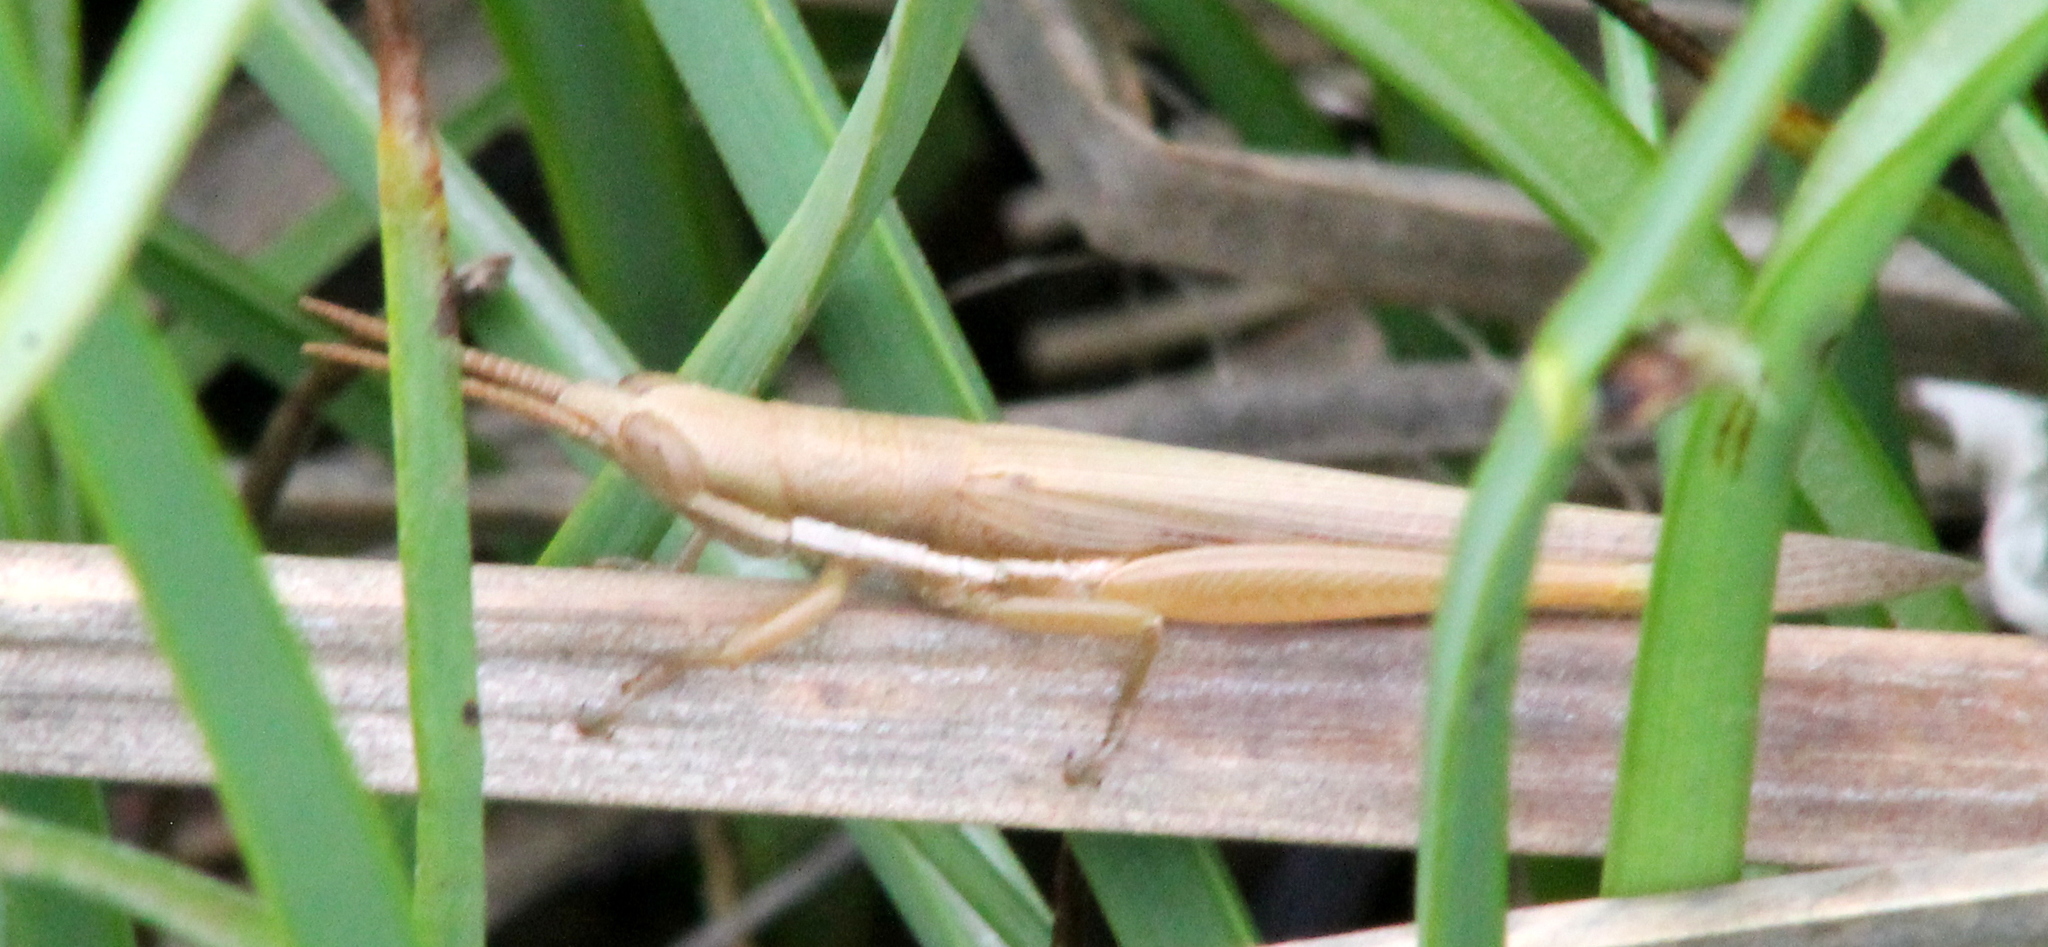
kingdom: Animalia
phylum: Arthropoda
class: Insecta
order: Orthoptera
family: Acrididae
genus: Leptysma
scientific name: Leptysma marginicollis
